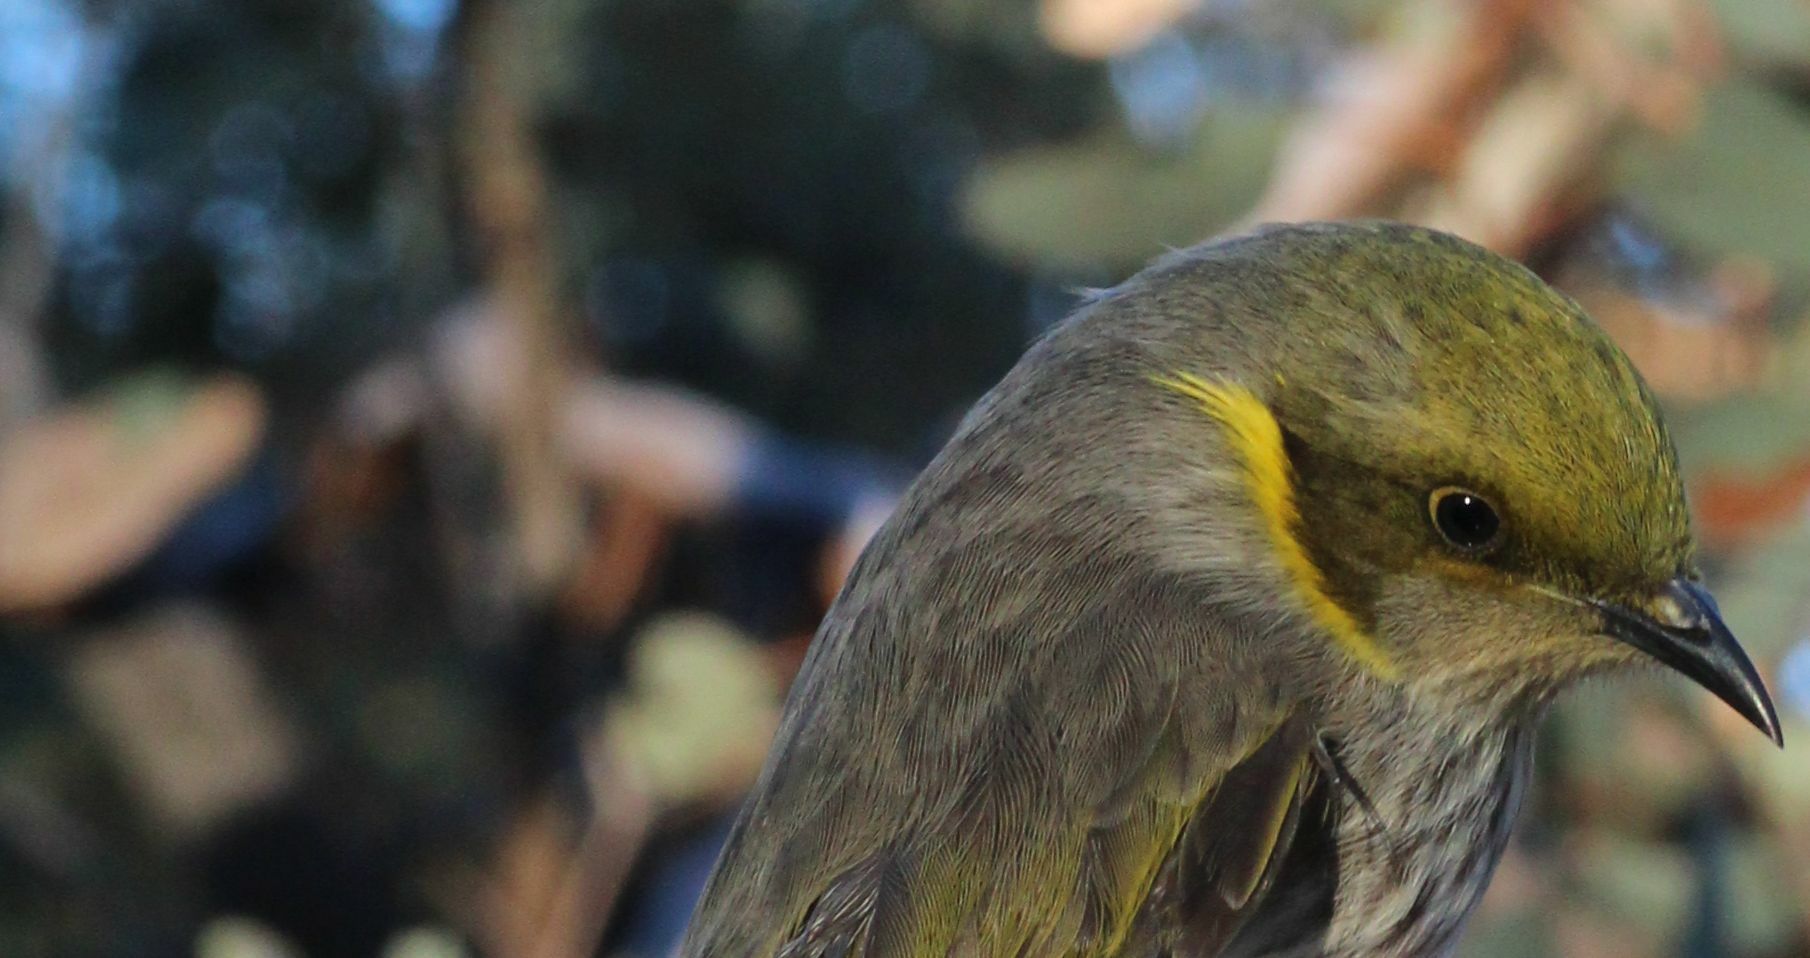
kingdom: Animalia
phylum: Chordata
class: Aves
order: Passeriformes
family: Meliphagidae
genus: Ptilotula
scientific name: Ptilotula ornata
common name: Yellow-plumed honeyeater
